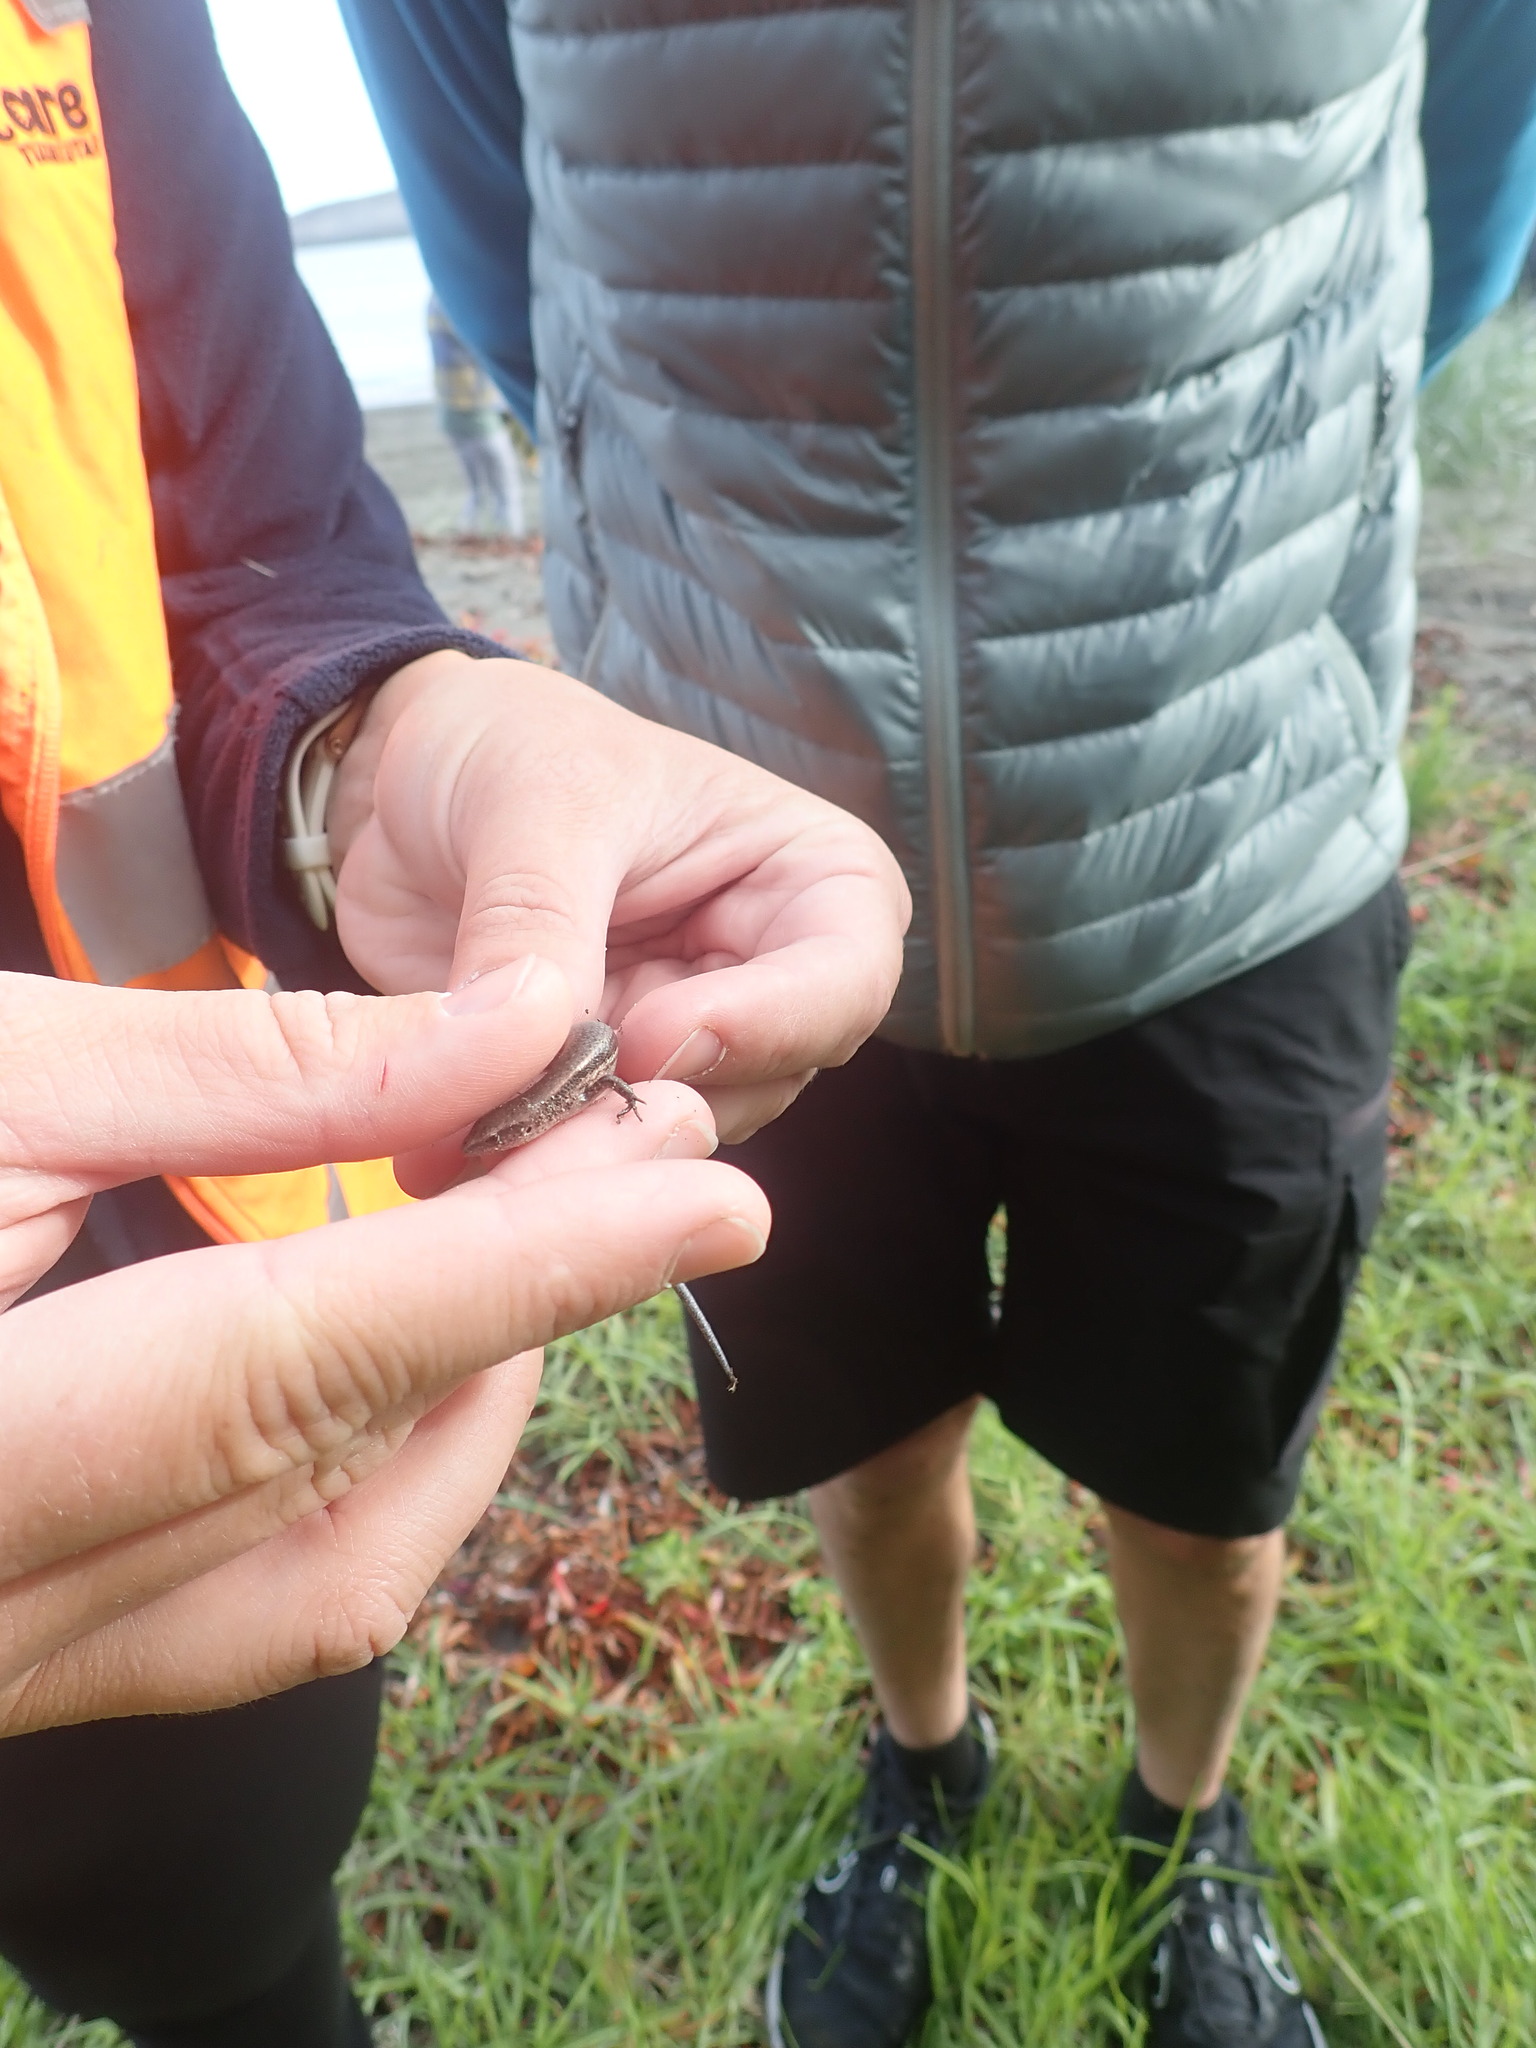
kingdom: Animalia
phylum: Chordata
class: Squamata
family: Scincidae
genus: Lampropholis
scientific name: Lampropholis delicata
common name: Plague skink
